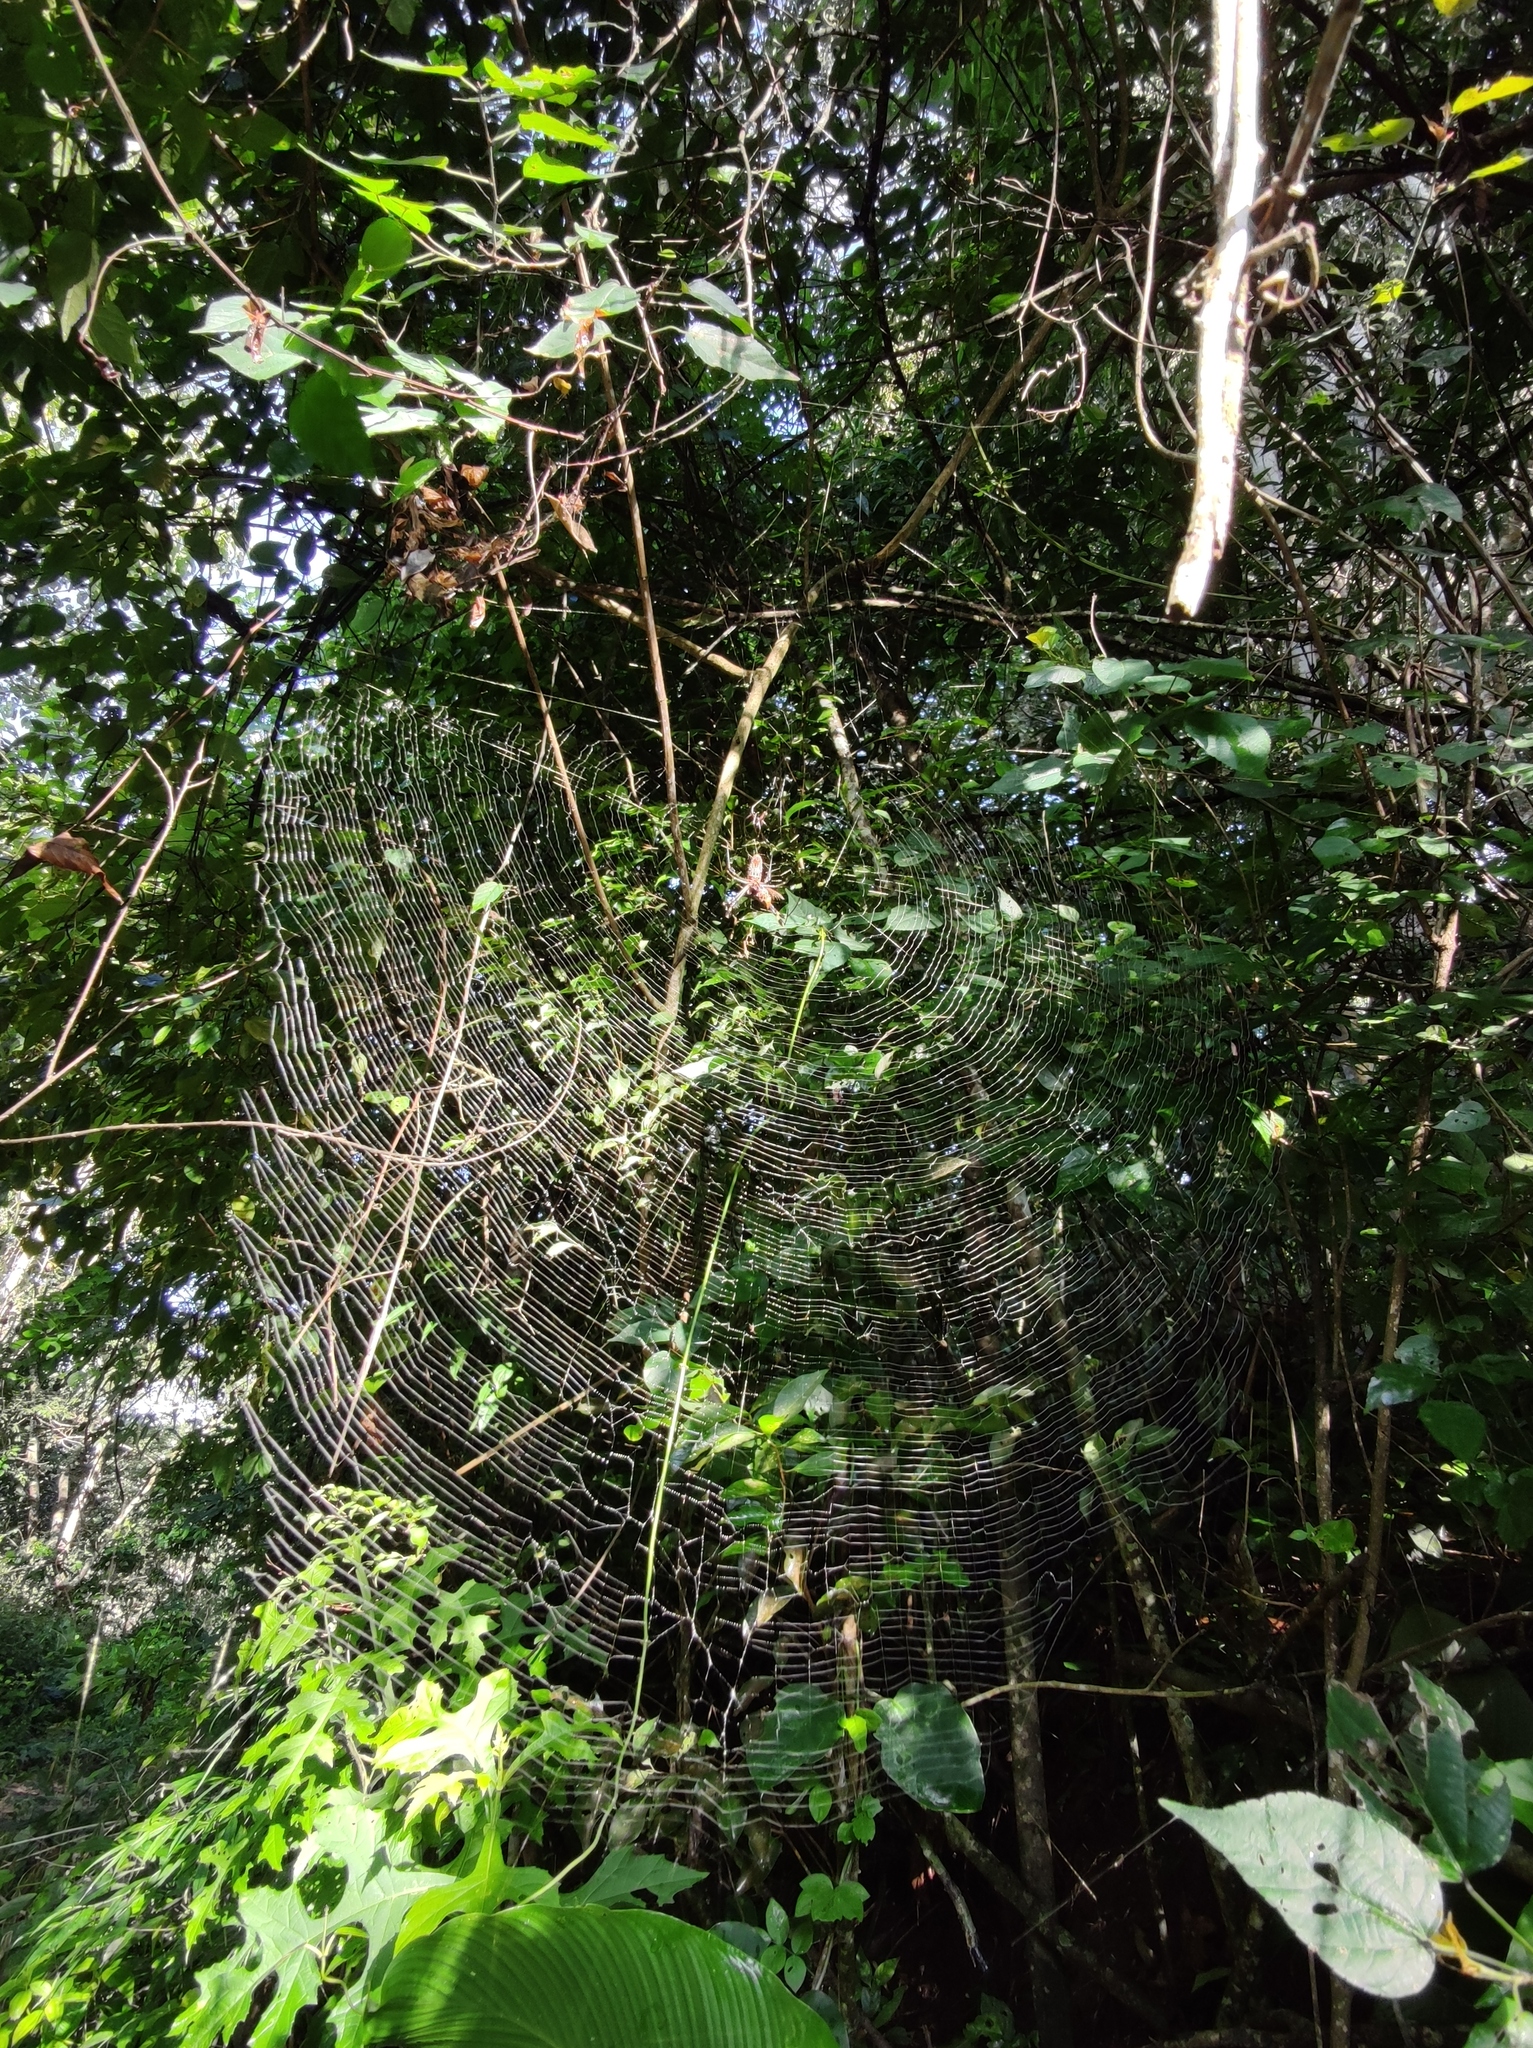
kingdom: Animalia
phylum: Arthropoda
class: Arachnida
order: Araneae
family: Araneidae
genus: Trichonephila
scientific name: Trichonephila clavipes
